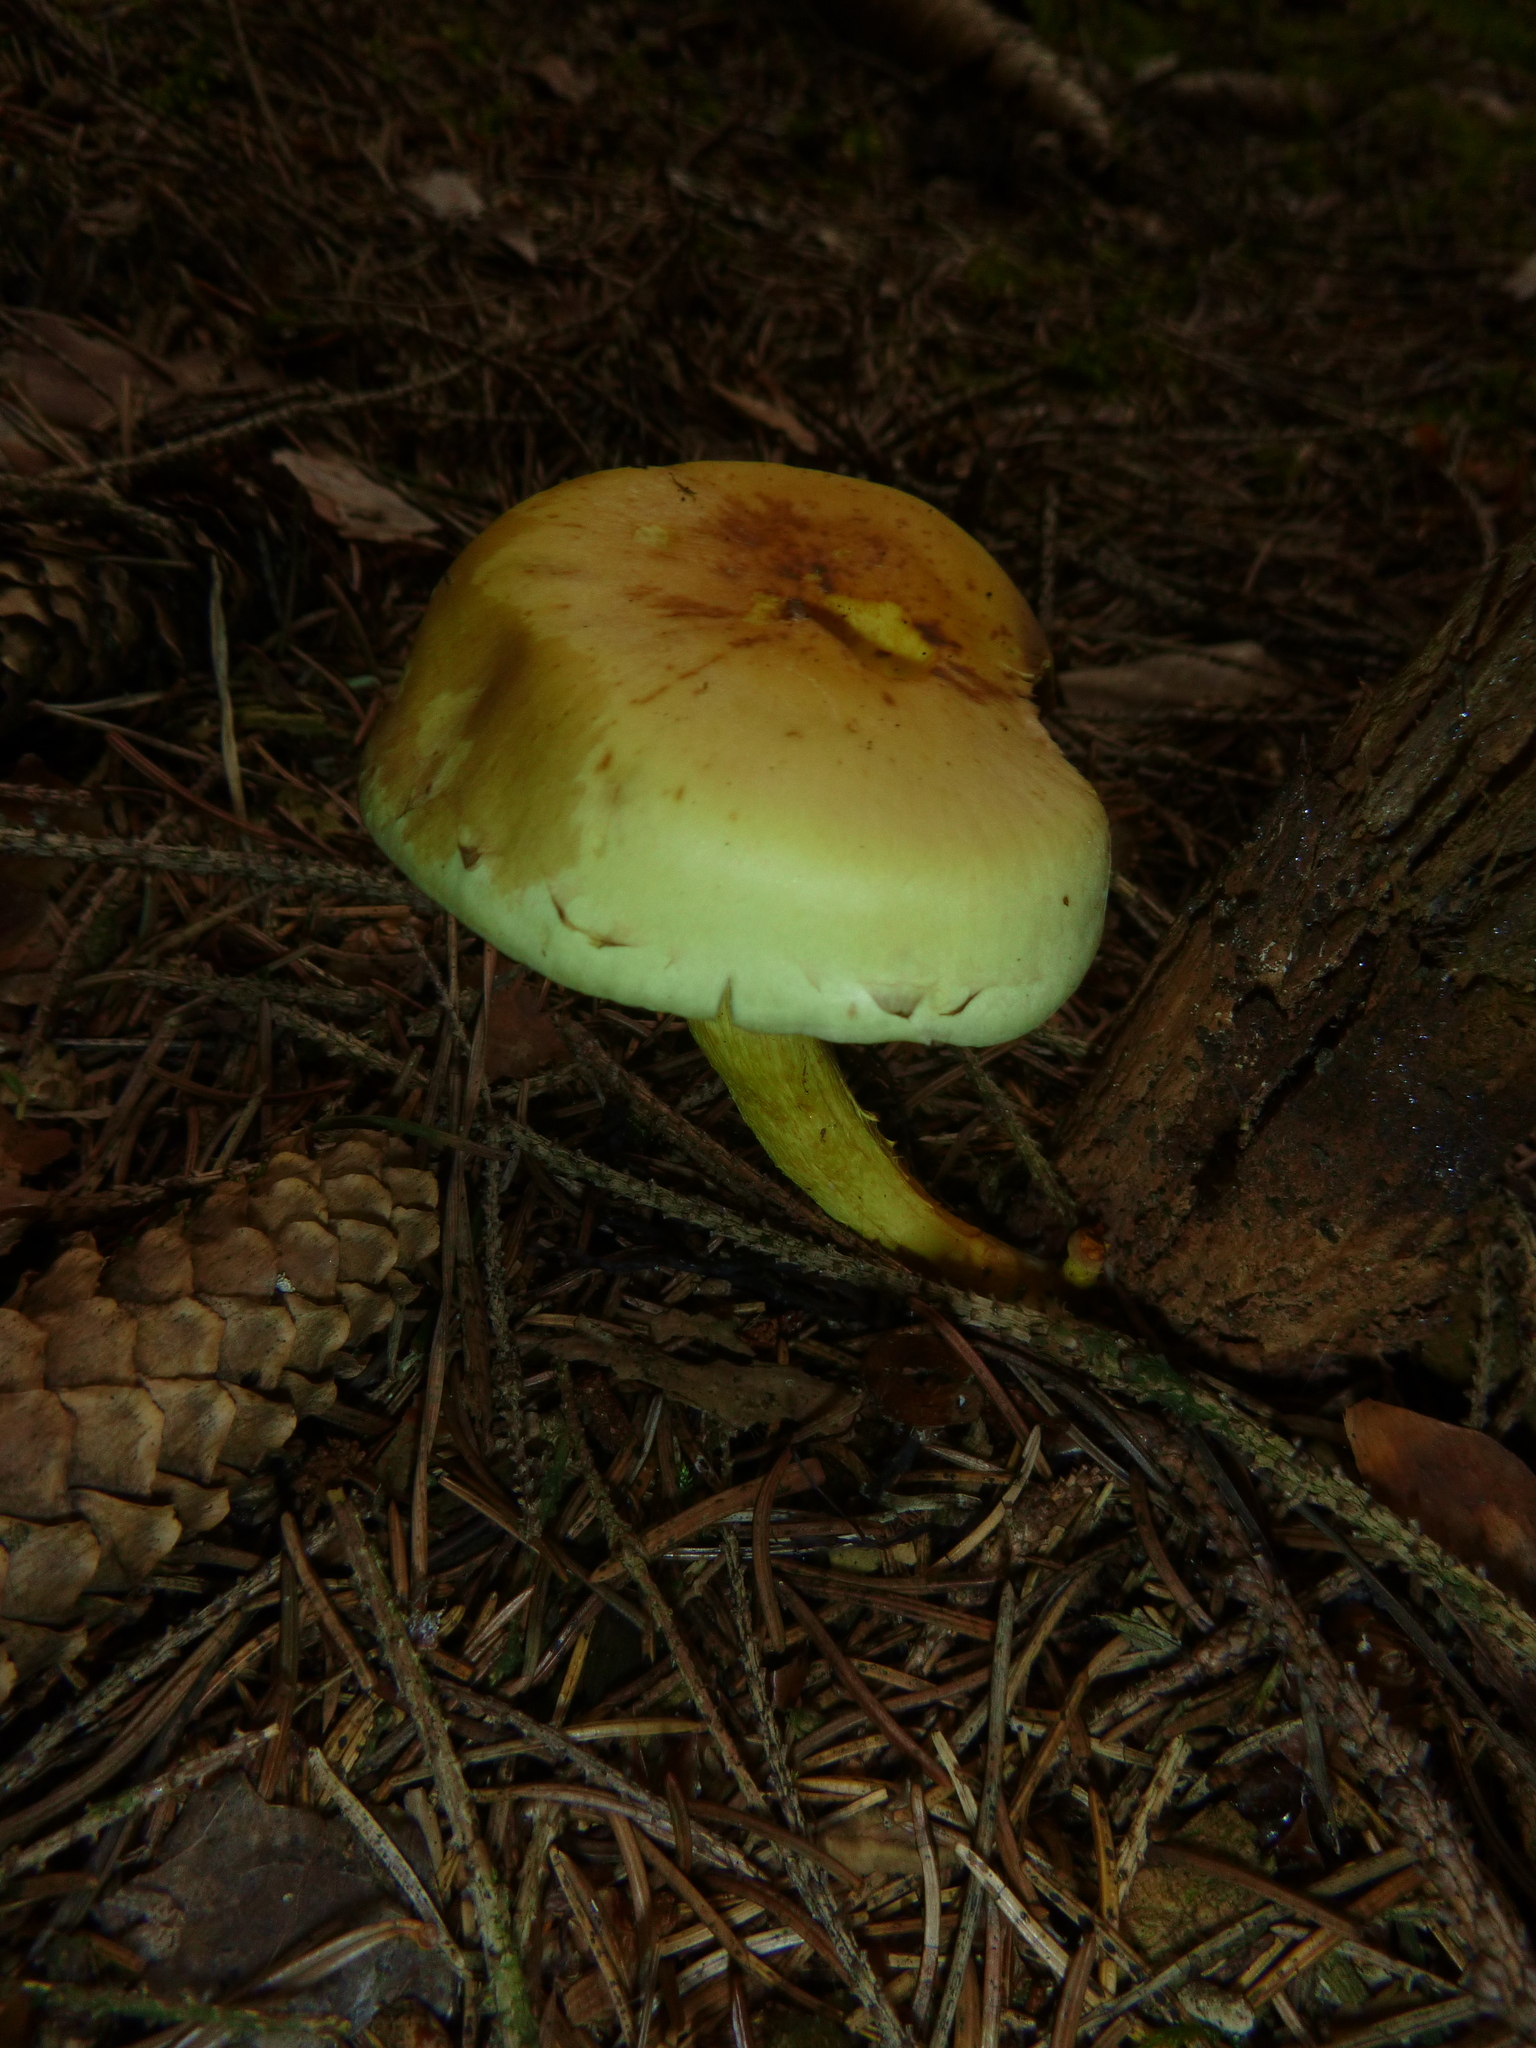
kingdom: Fungi
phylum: Basidiomycota
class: Agaricomycetes
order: Agaricales
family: Strophariaceae
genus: Hypholoma
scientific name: Hypholoma fasciculare
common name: Sulphur tuft
